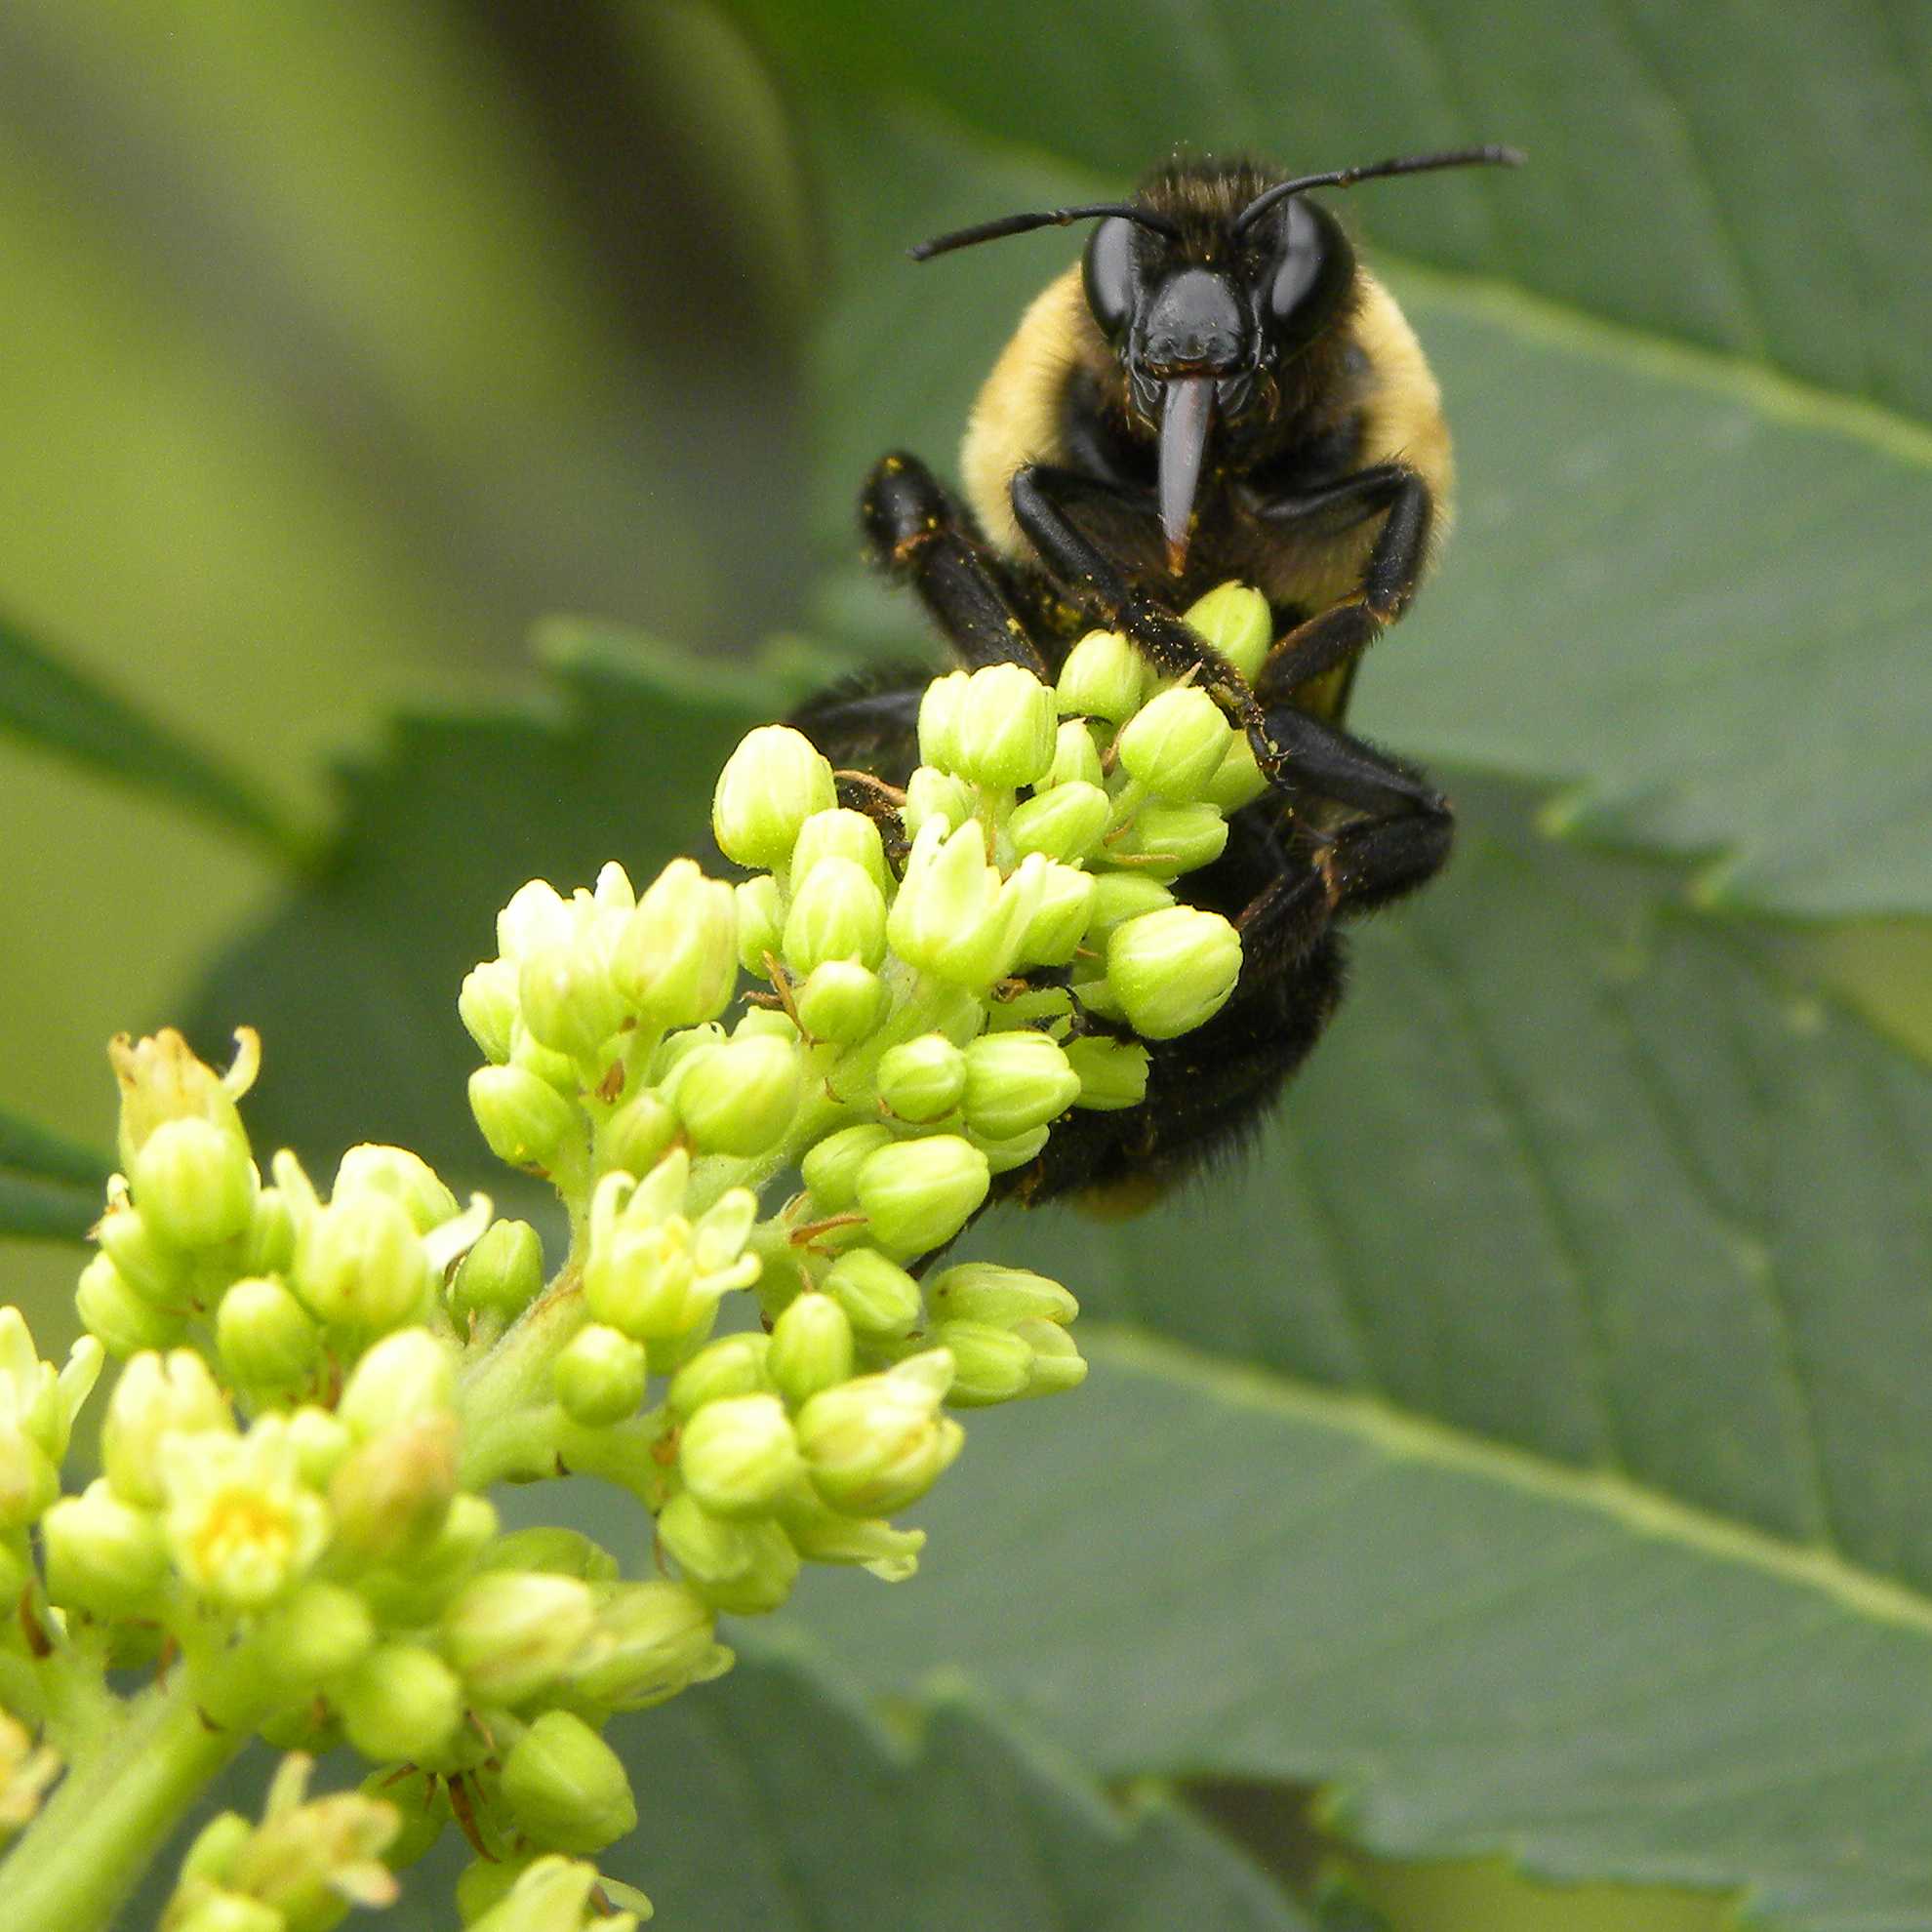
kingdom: Animalia
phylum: Arthropoda
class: Insecta
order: Hymenoptera
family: Apidae
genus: Bombus
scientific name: Bombus griseocollis
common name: Brown-belted bumble bee
